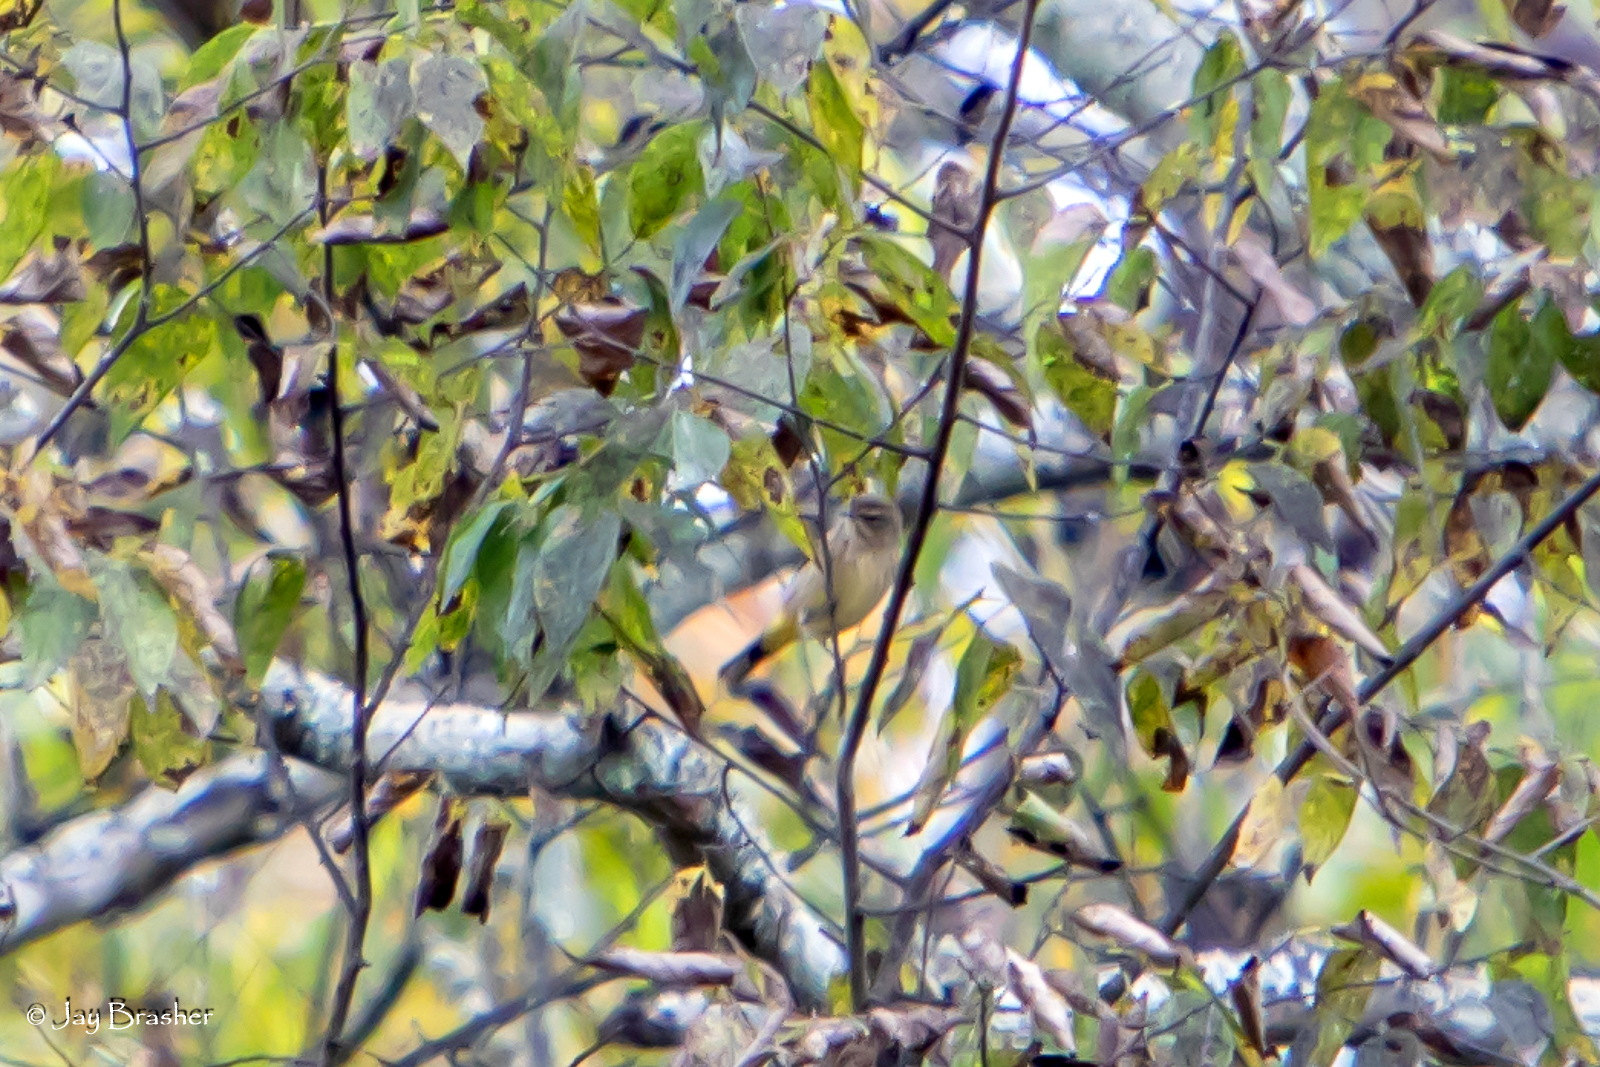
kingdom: Animalia
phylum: Chordata
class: Aves
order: Passeriformes
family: Parulidae
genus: Setophaga
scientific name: Setophaga palmarum
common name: Palm warbler
